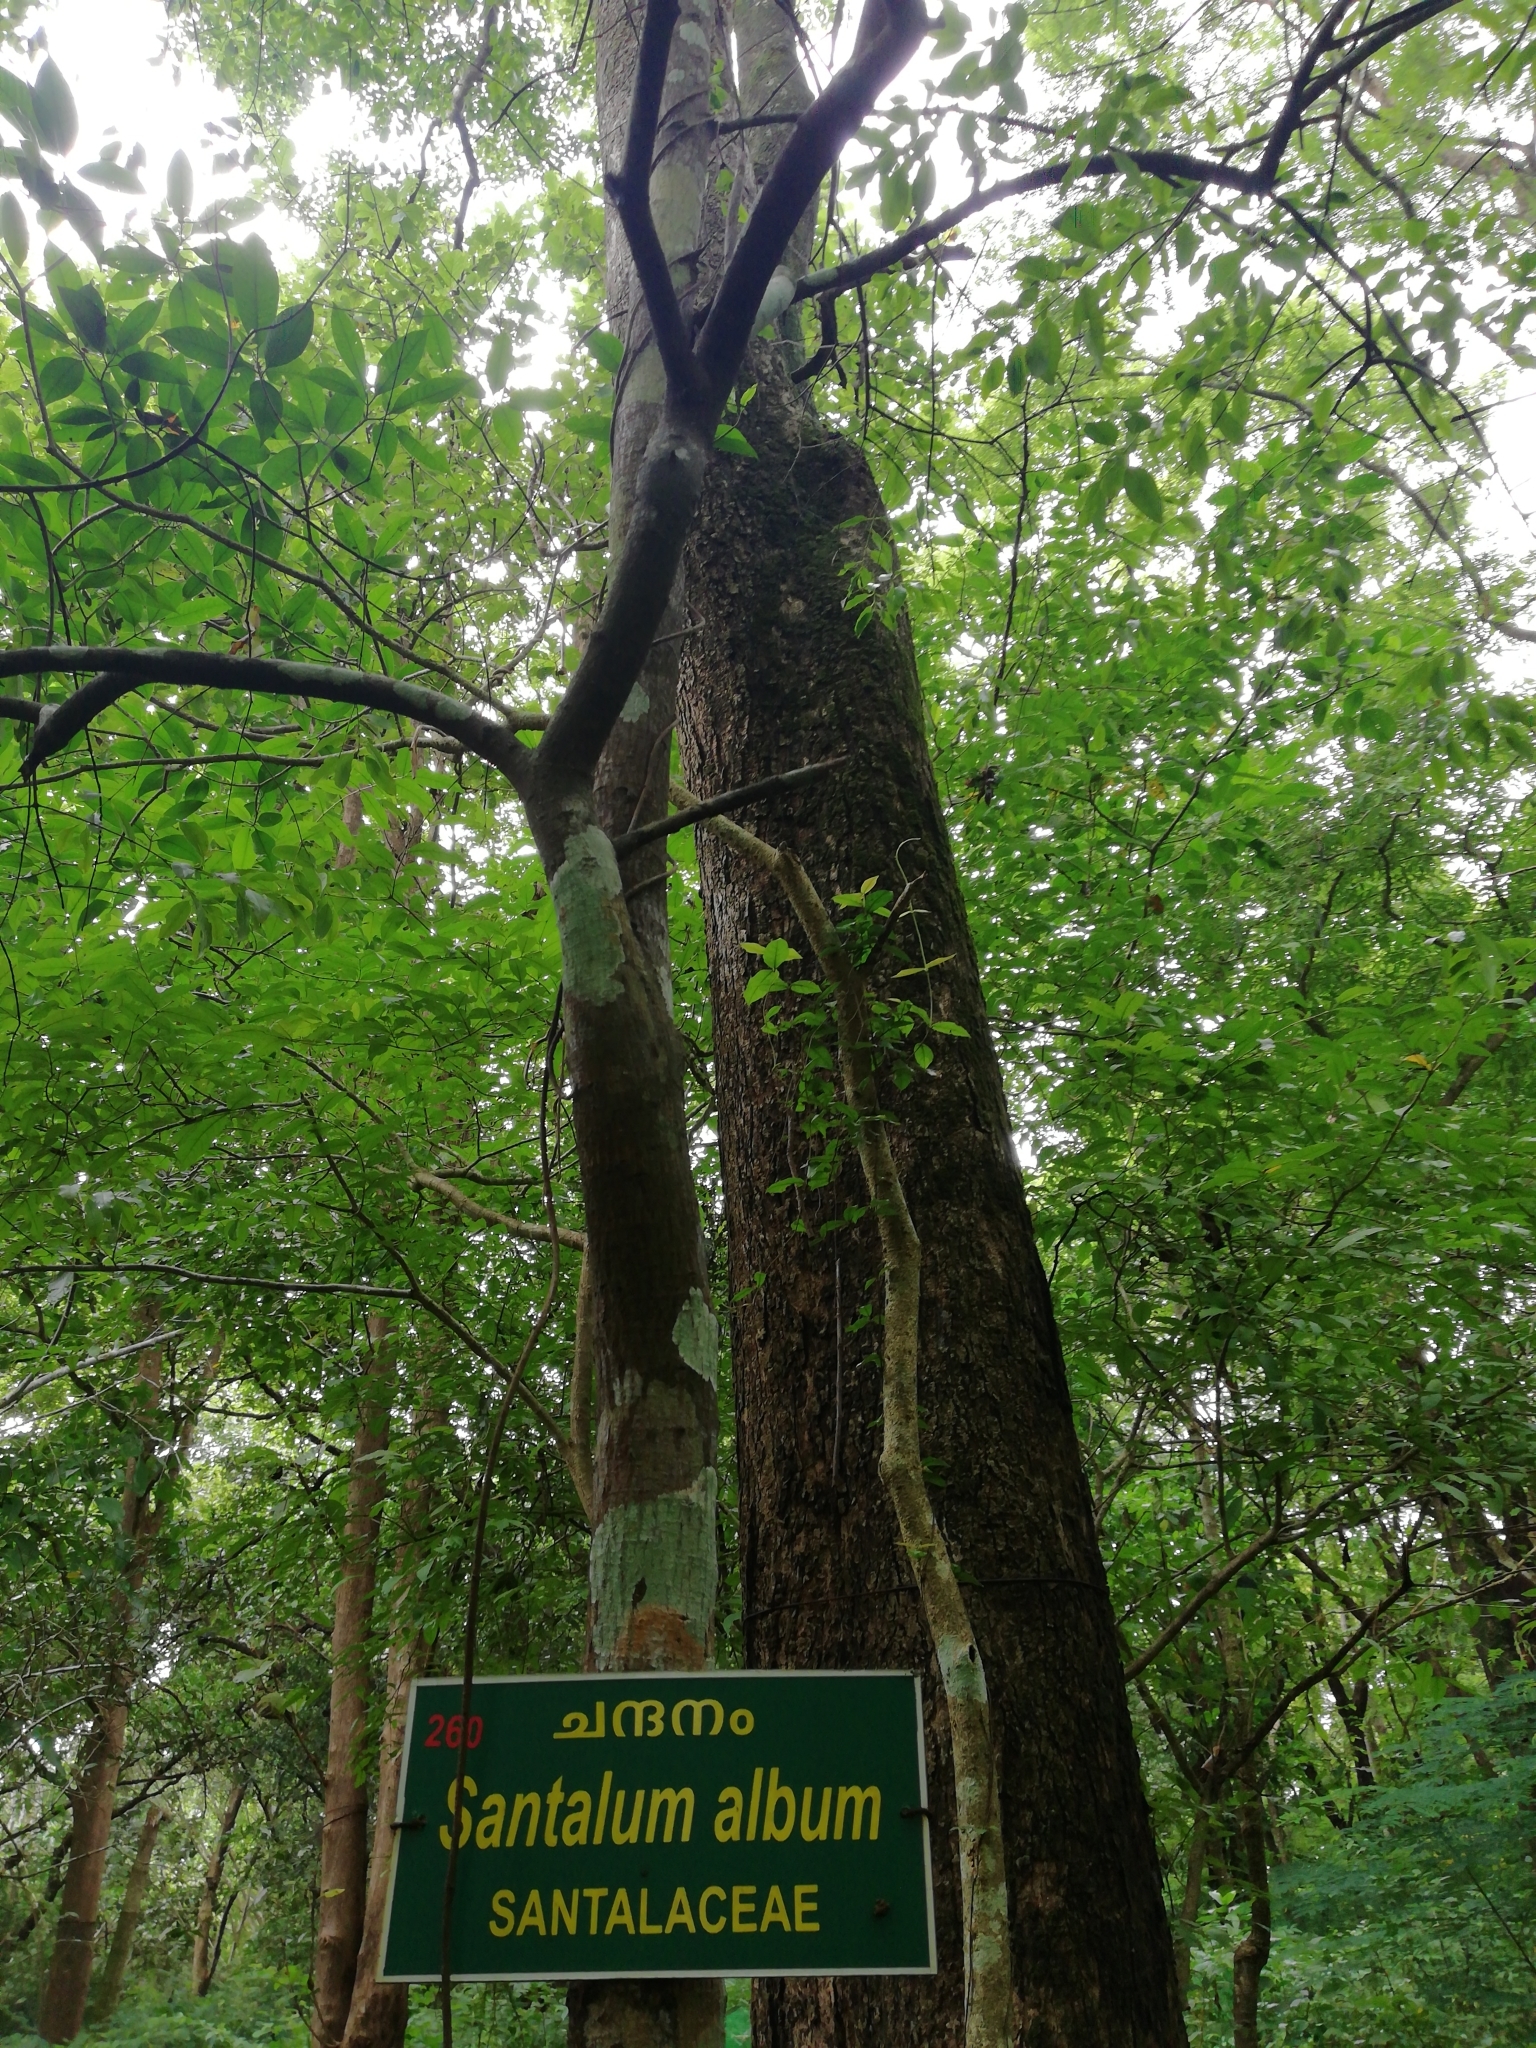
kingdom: Plantae
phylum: Tracheophyta
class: Magnoliopsida
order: Santalales
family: Santalaceae
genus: Santalum
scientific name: Santalum album
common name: Indian sandalwood
